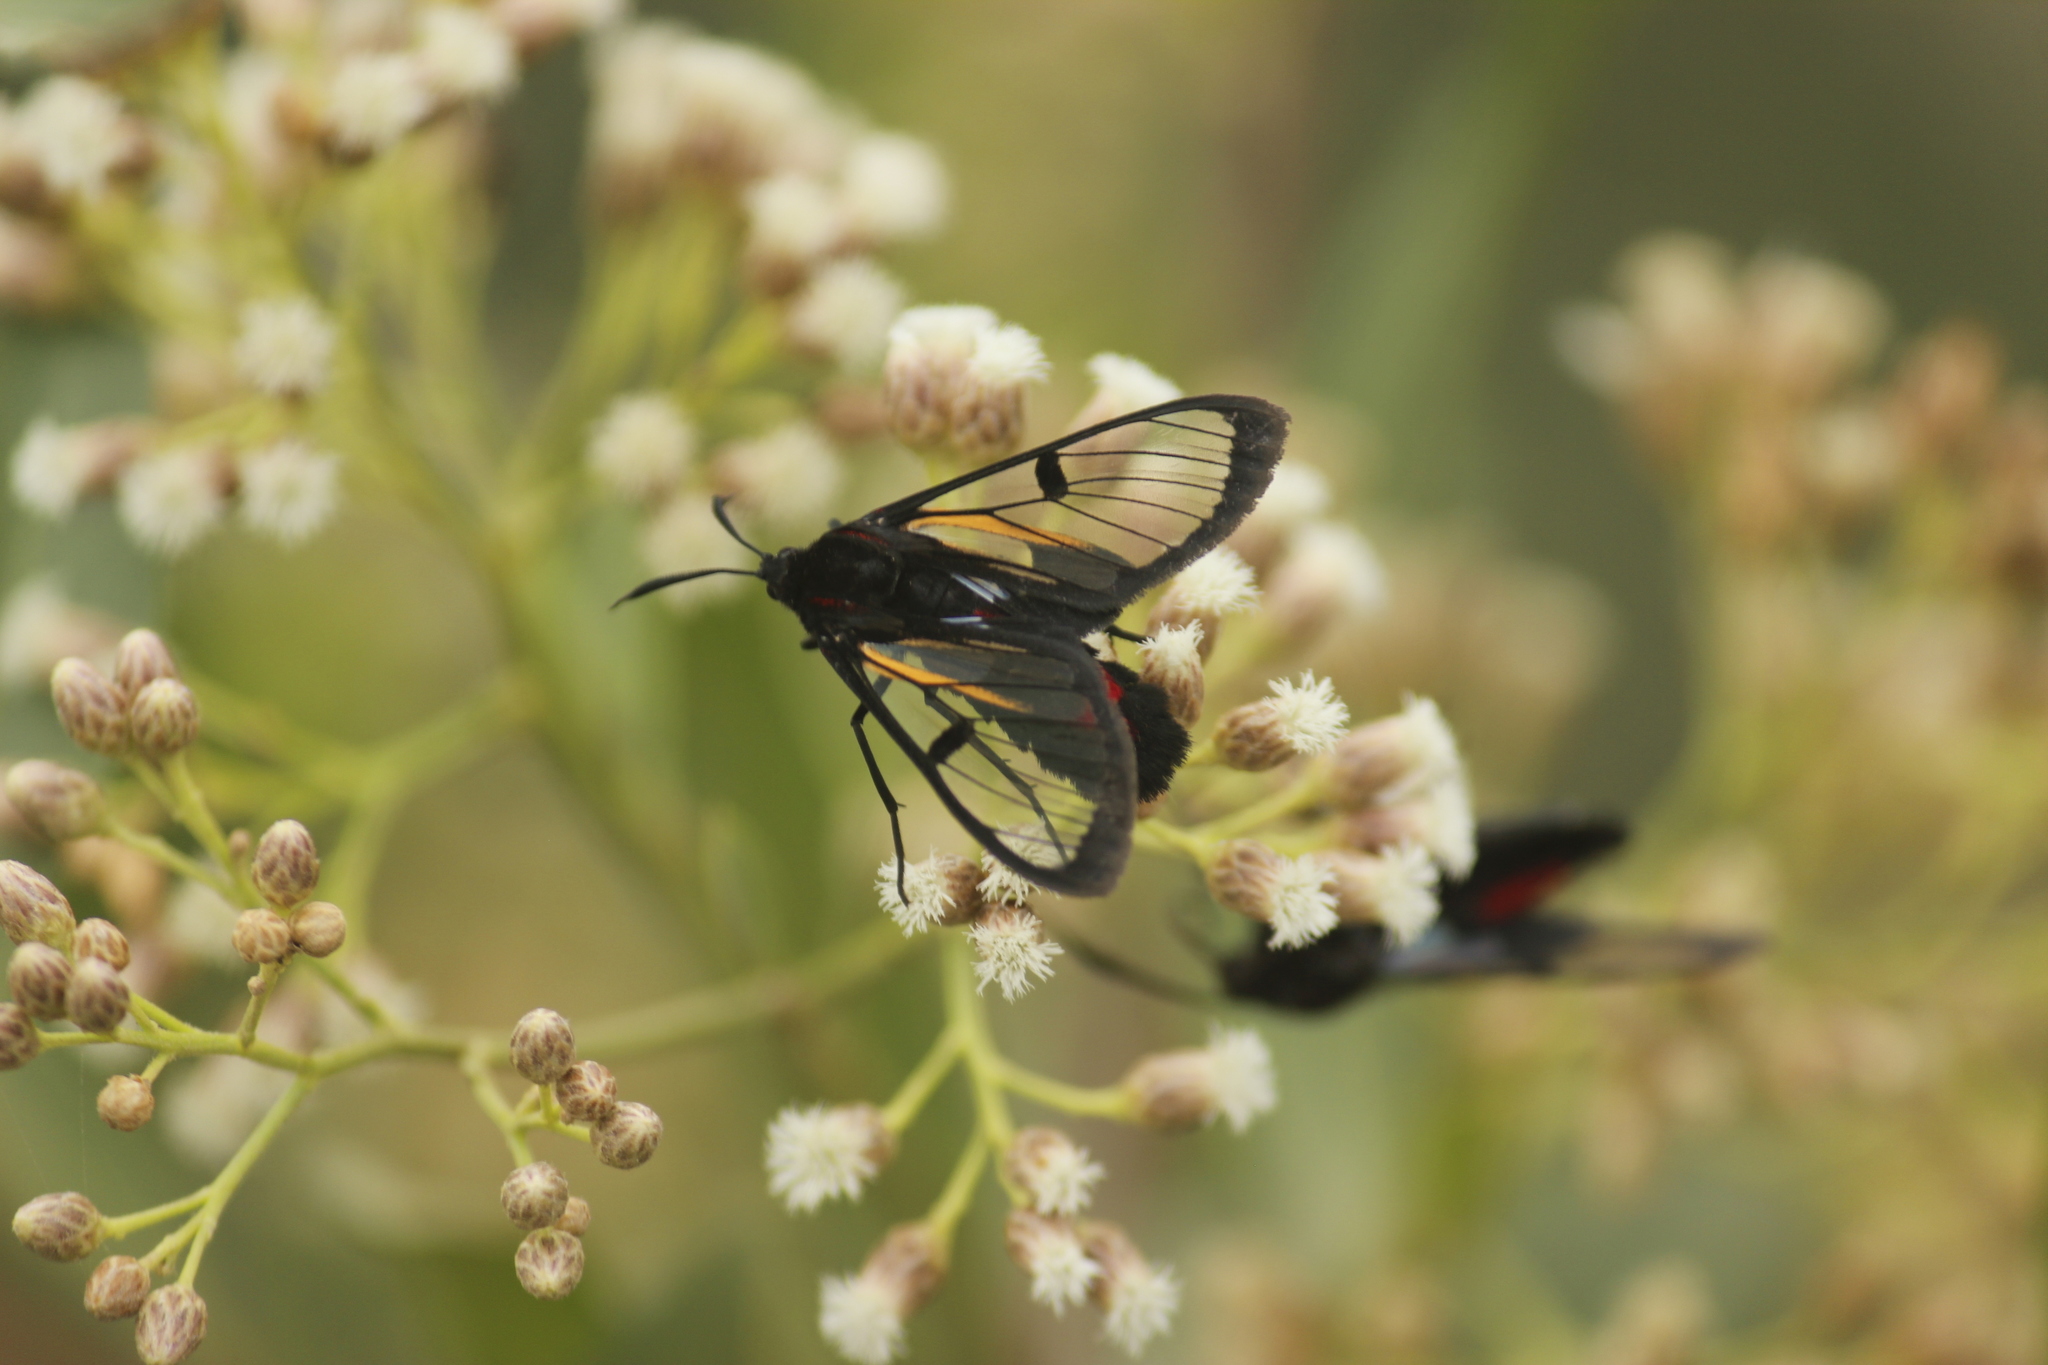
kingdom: Animalia
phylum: Arthropoda
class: Insecta
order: Lepidoptera
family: Erebidae
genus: Dinia
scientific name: Dinia subapicalis
